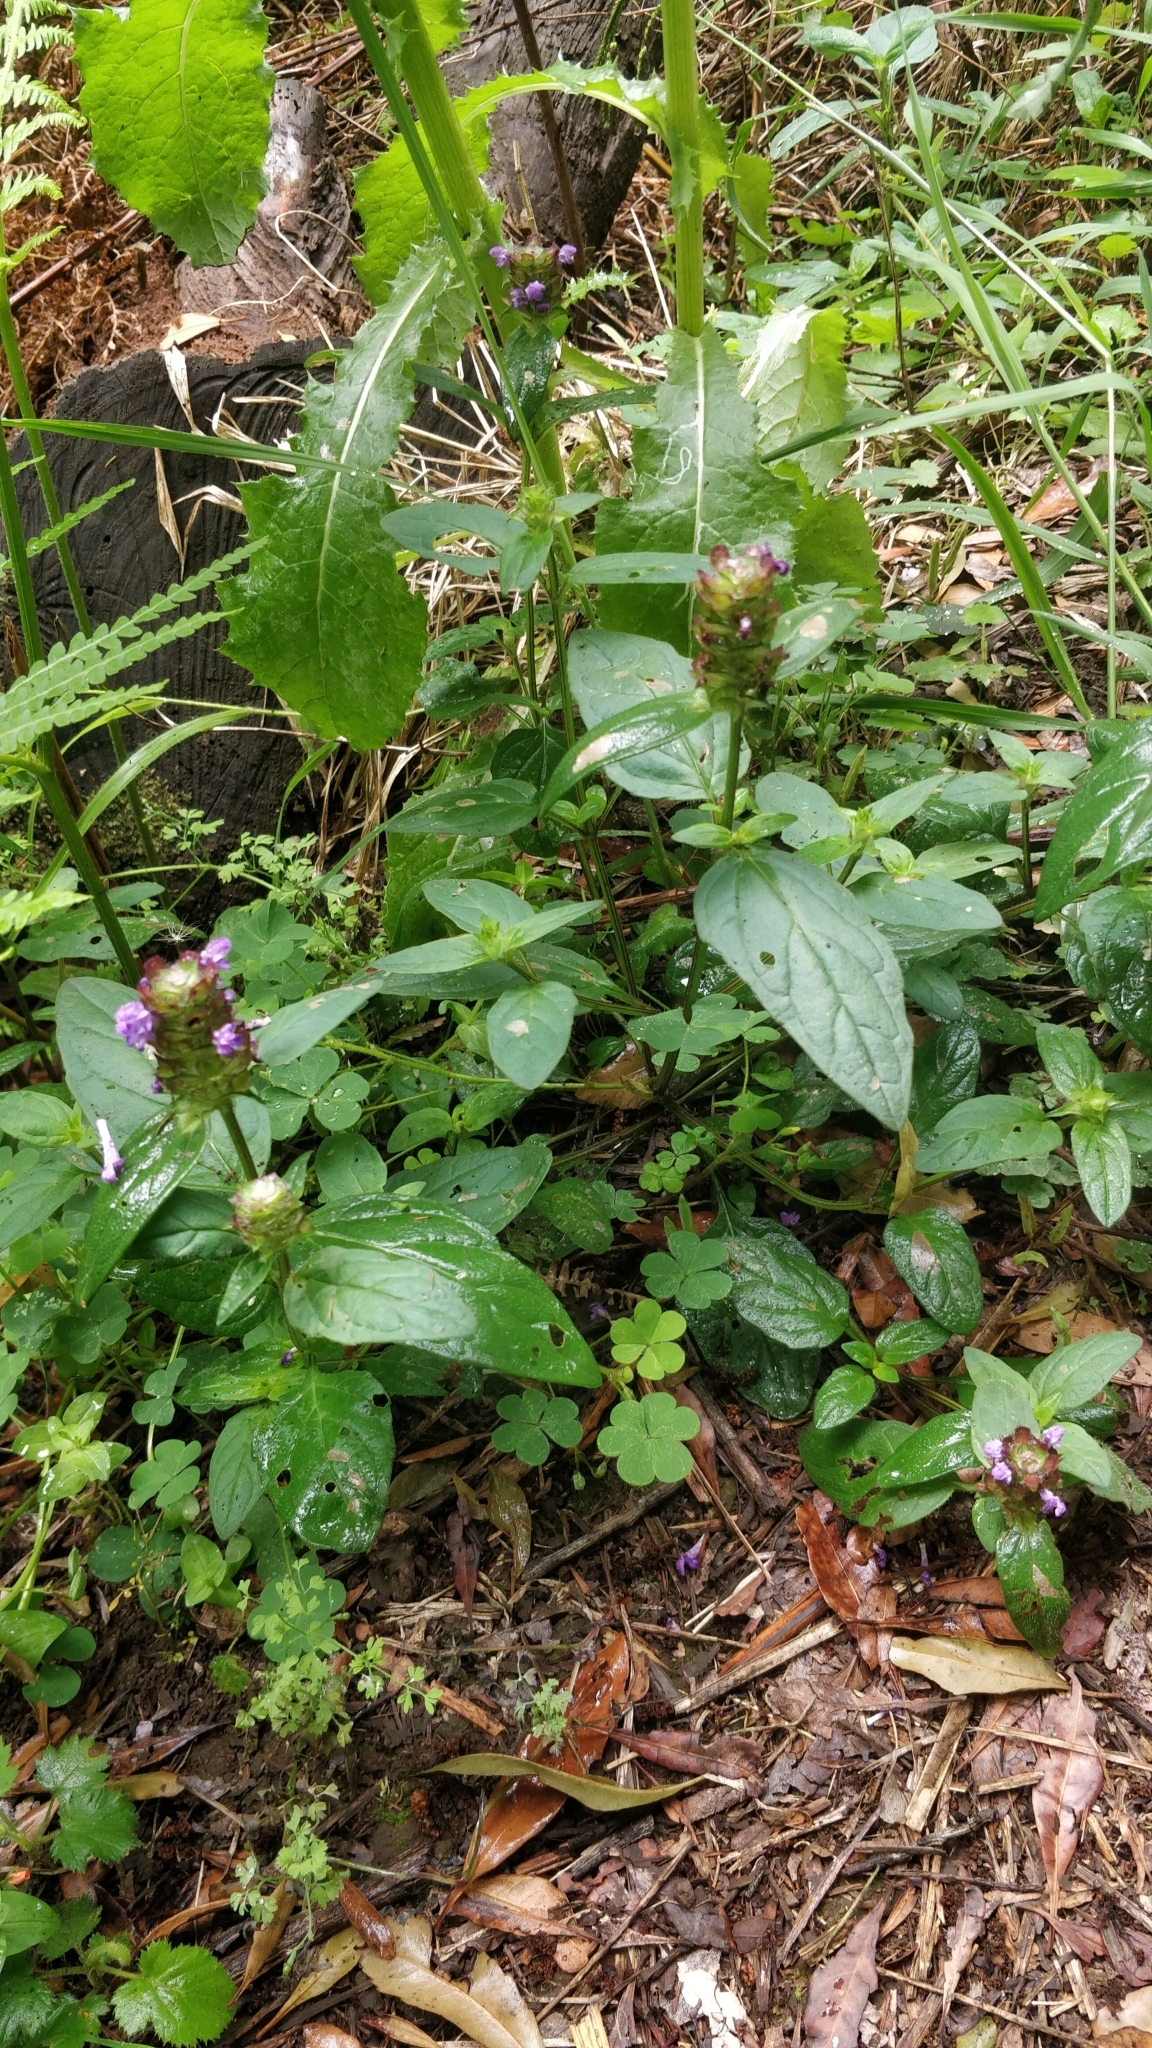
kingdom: Plantae
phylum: Tracheophyta
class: Magnoliopsida
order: Lamiales
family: Lamiaceae
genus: Prunella
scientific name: Prunella vulgaris
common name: Heal-all
